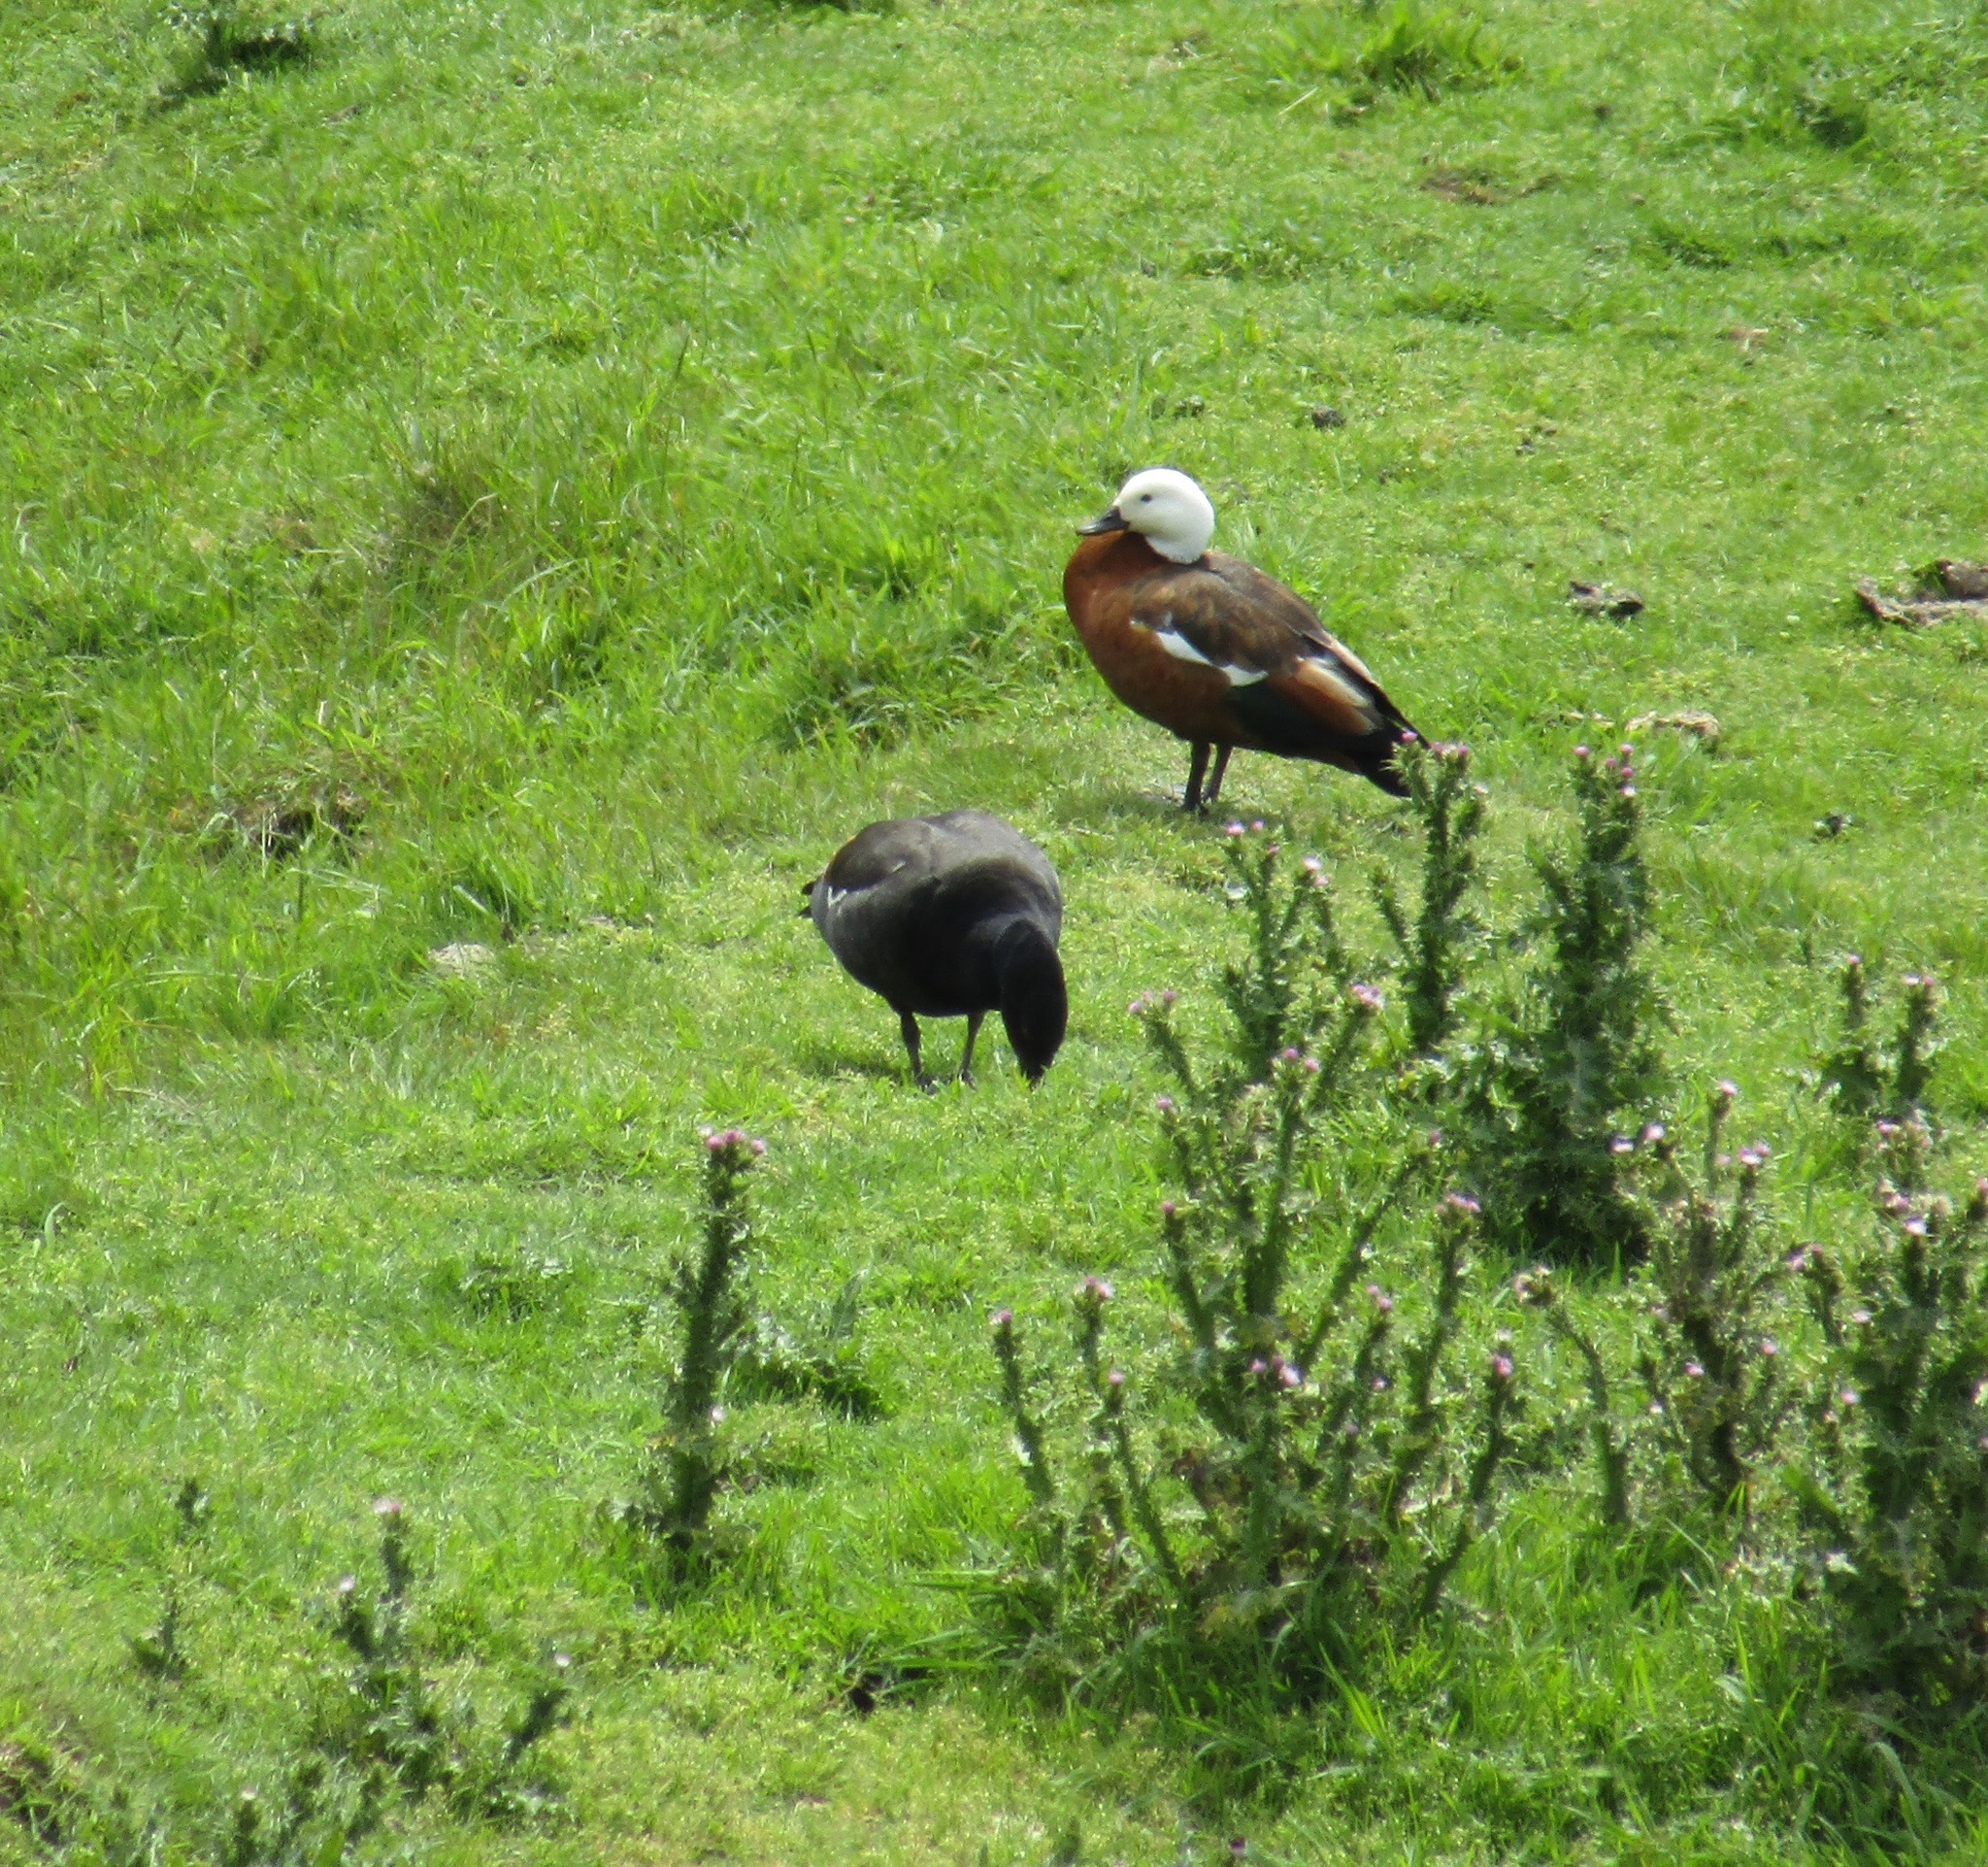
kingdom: Animalia
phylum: Chordata
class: Aves
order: Anseriformes
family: Anatidae
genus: Tadorna
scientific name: Tadorna variegata
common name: Paradise shelduck
